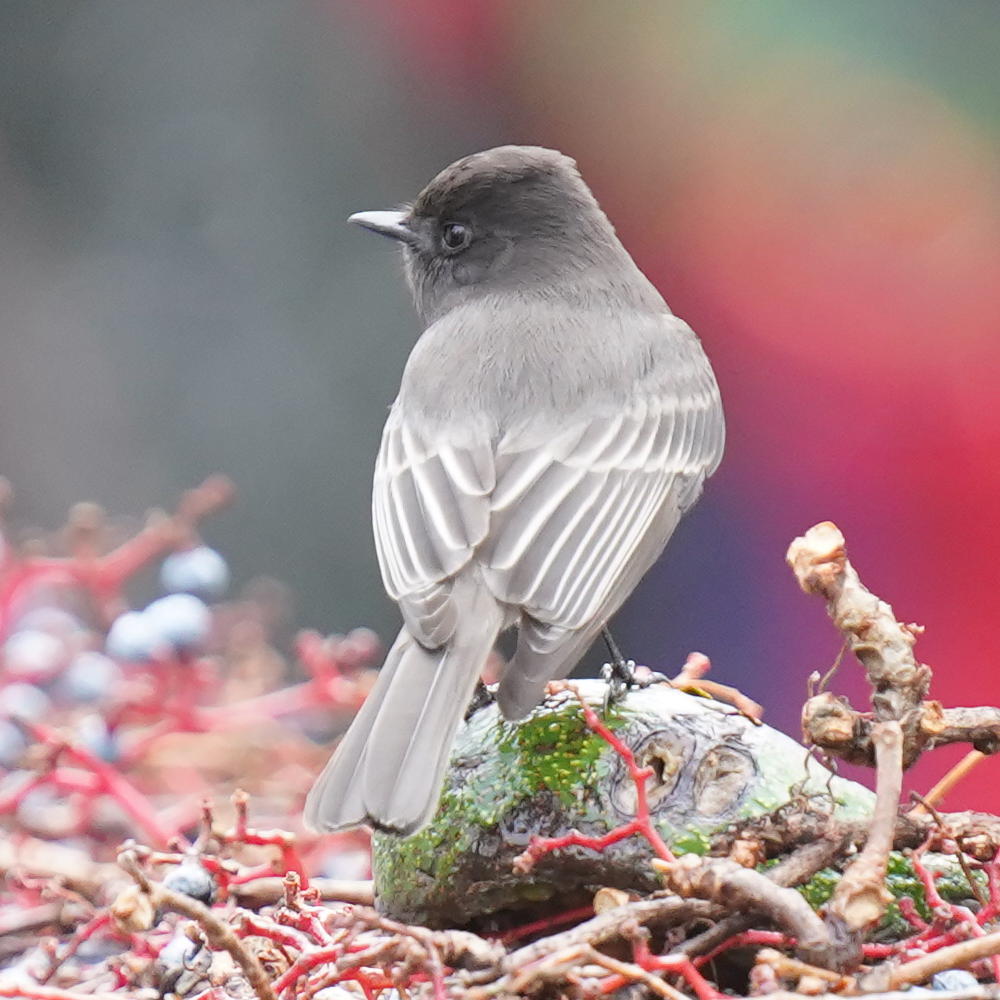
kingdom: Animalia
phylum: Chordata
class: Aves
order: Passeriformes
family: Tyrannidae
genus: Sayornis
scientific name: Sayornis nigricans
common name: Black phoebe
